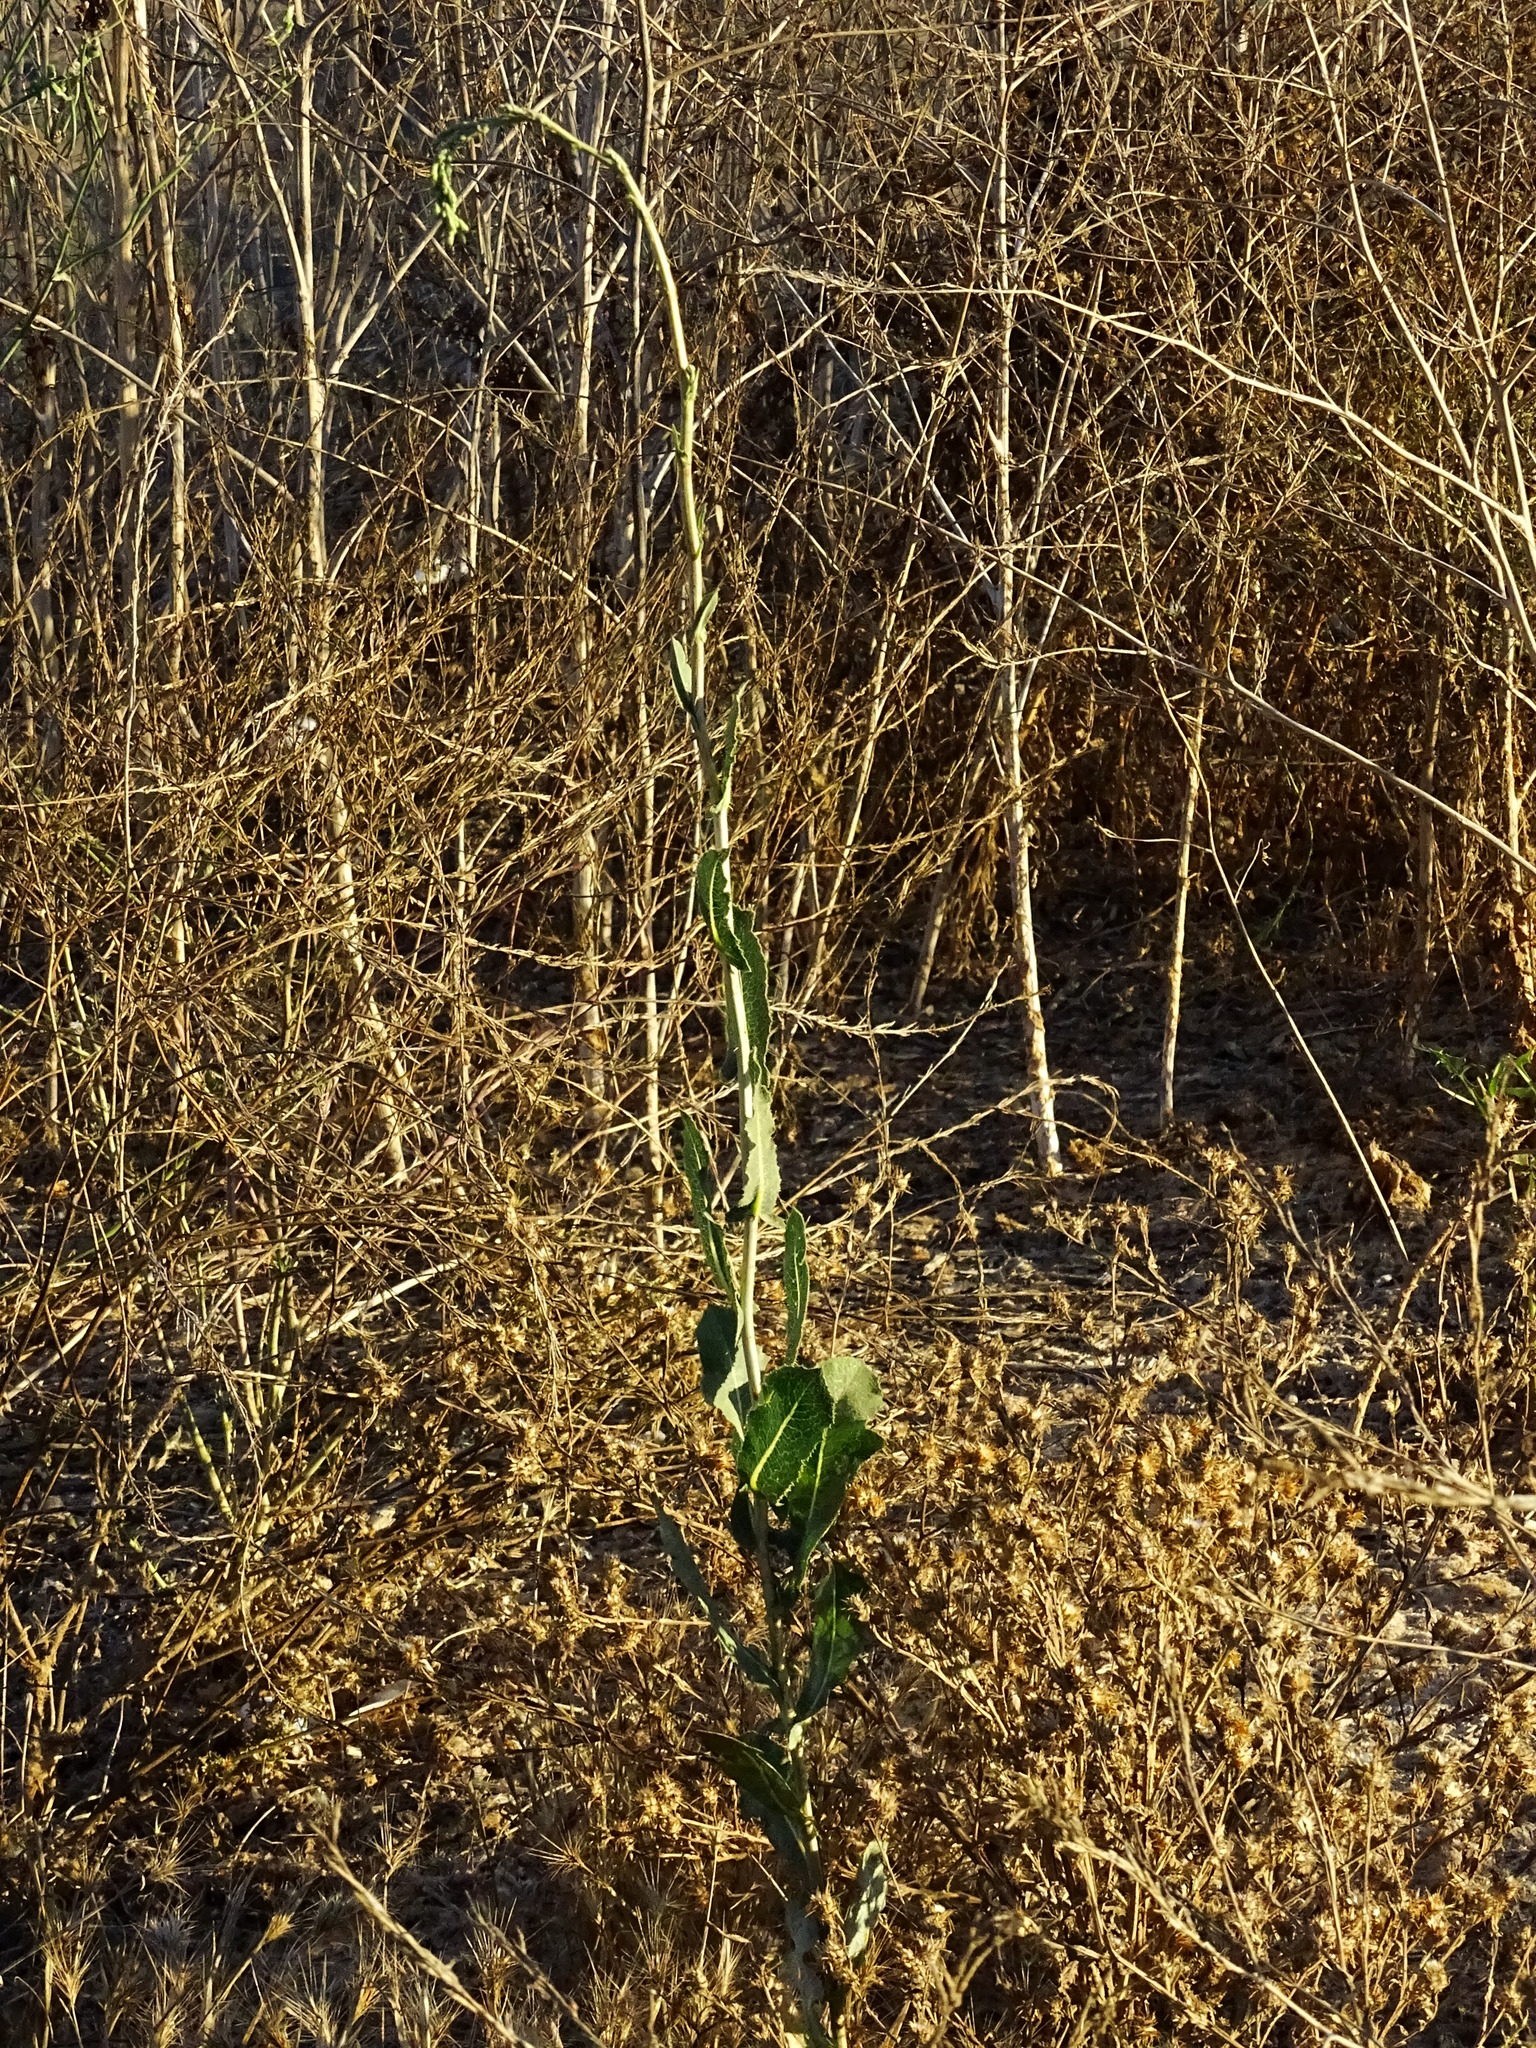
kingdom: Plantae
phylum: Tracheophyta
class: Magnoliopsida
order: Asterales
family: Asteraceae
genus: Lactuca
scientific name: Lactuca serriola
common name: Prickly lettuce
